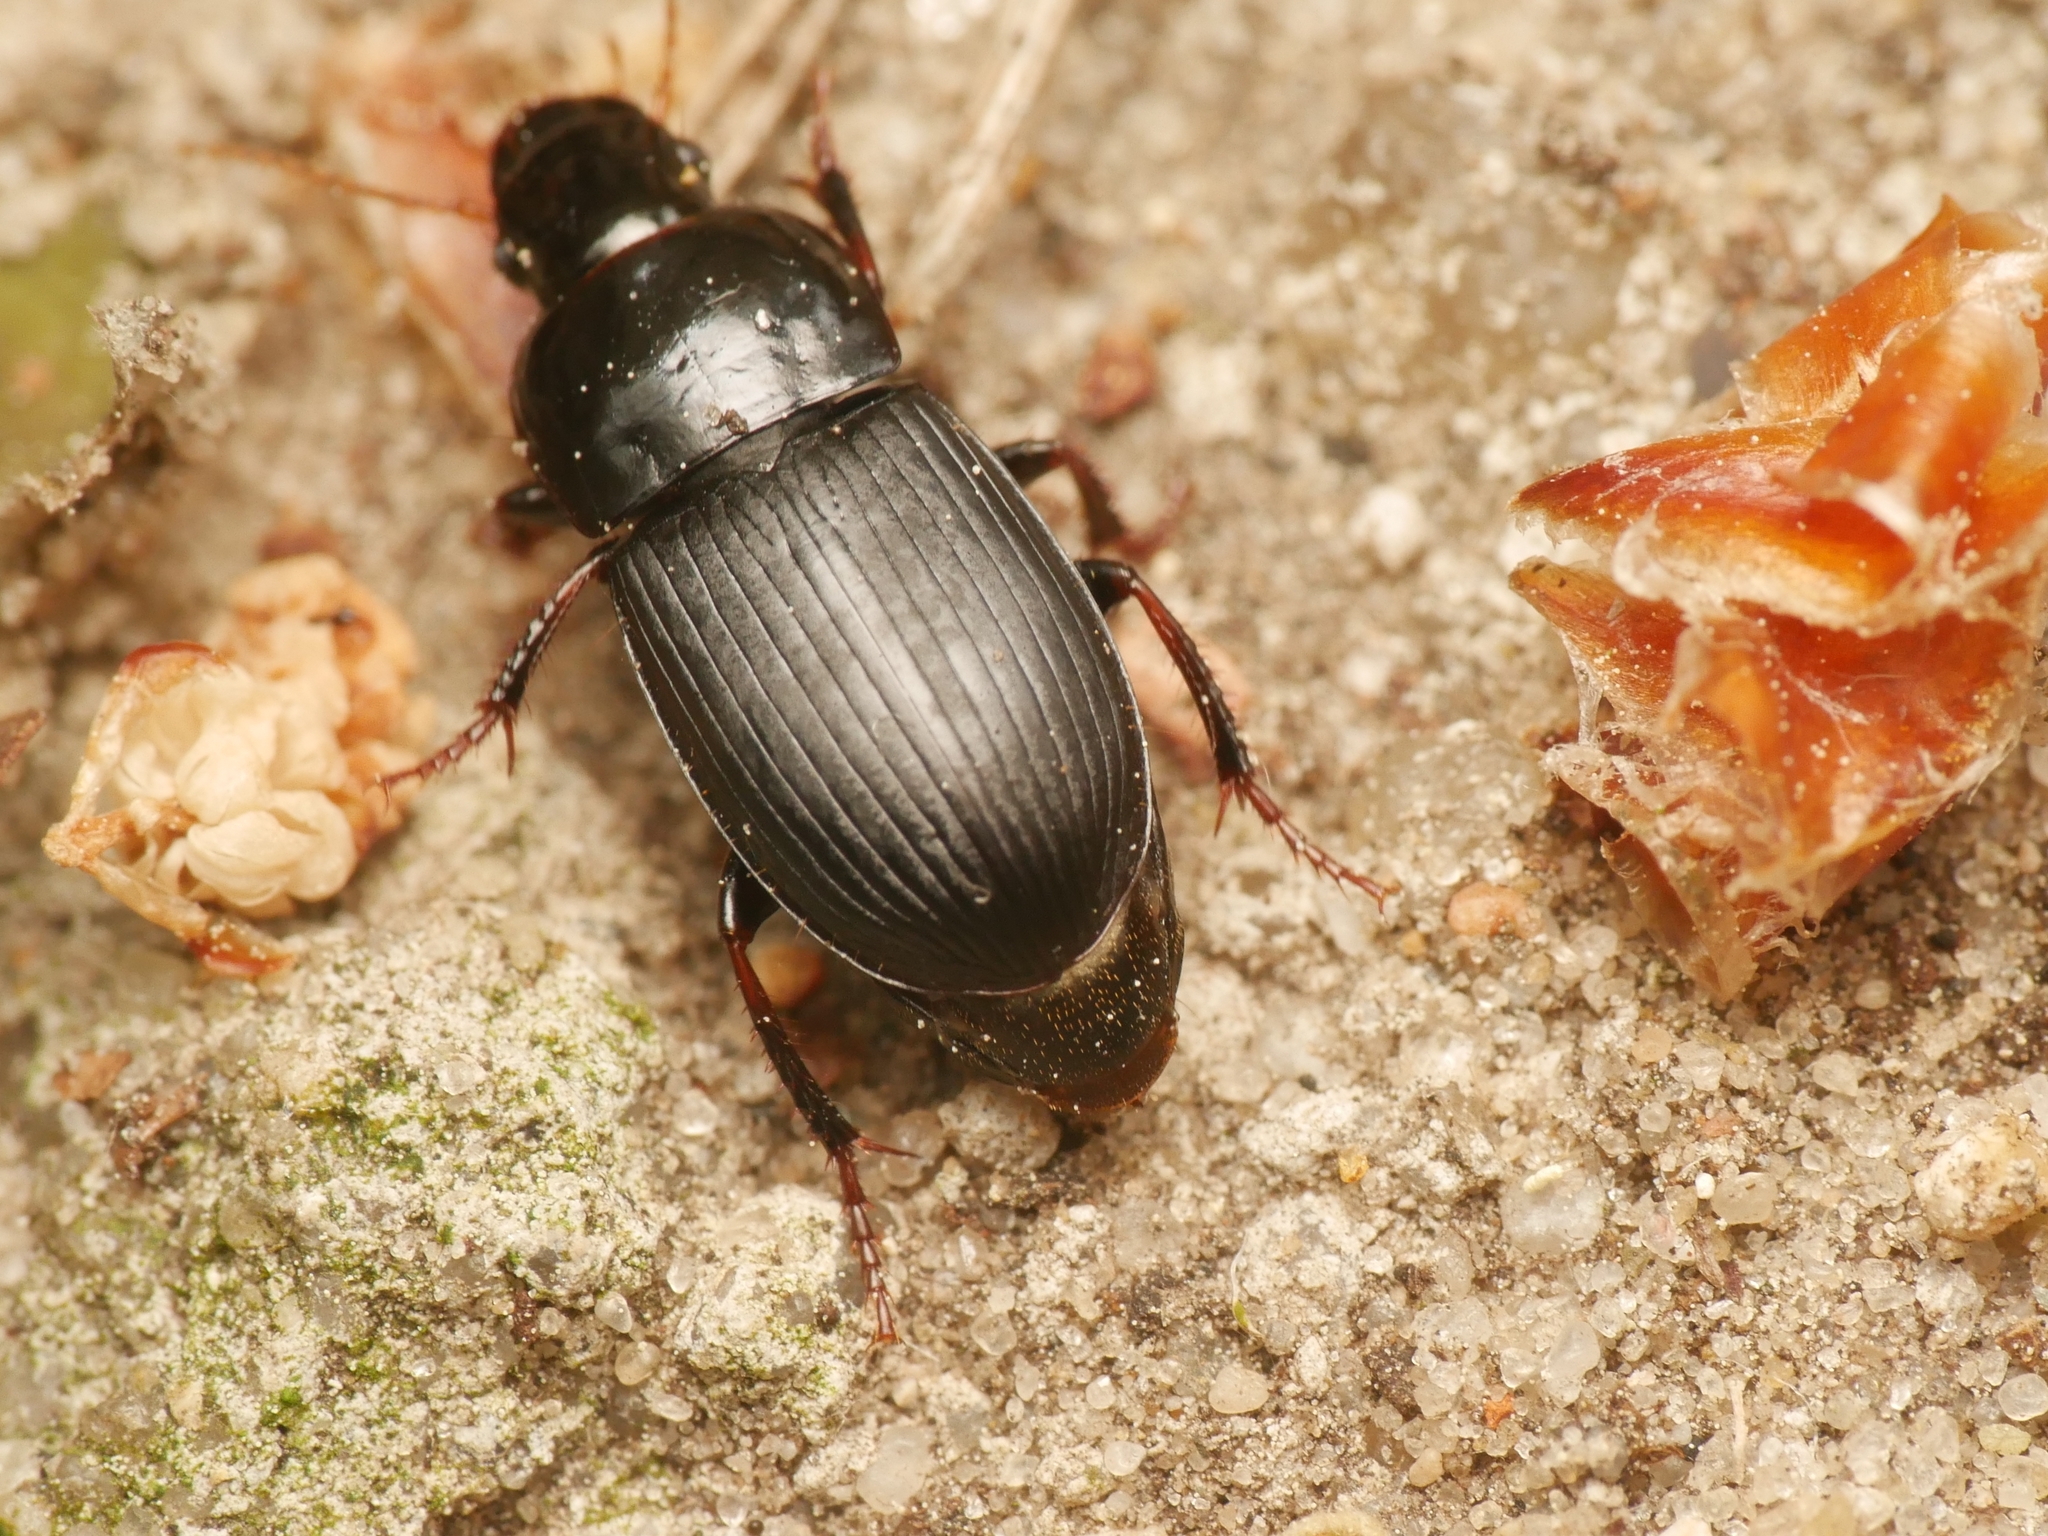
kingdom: Animalia
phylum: Arthropoda
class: Insecta
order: Coleoptera
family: Carabidae
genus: Harpalus
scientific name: Harpalus tardus
